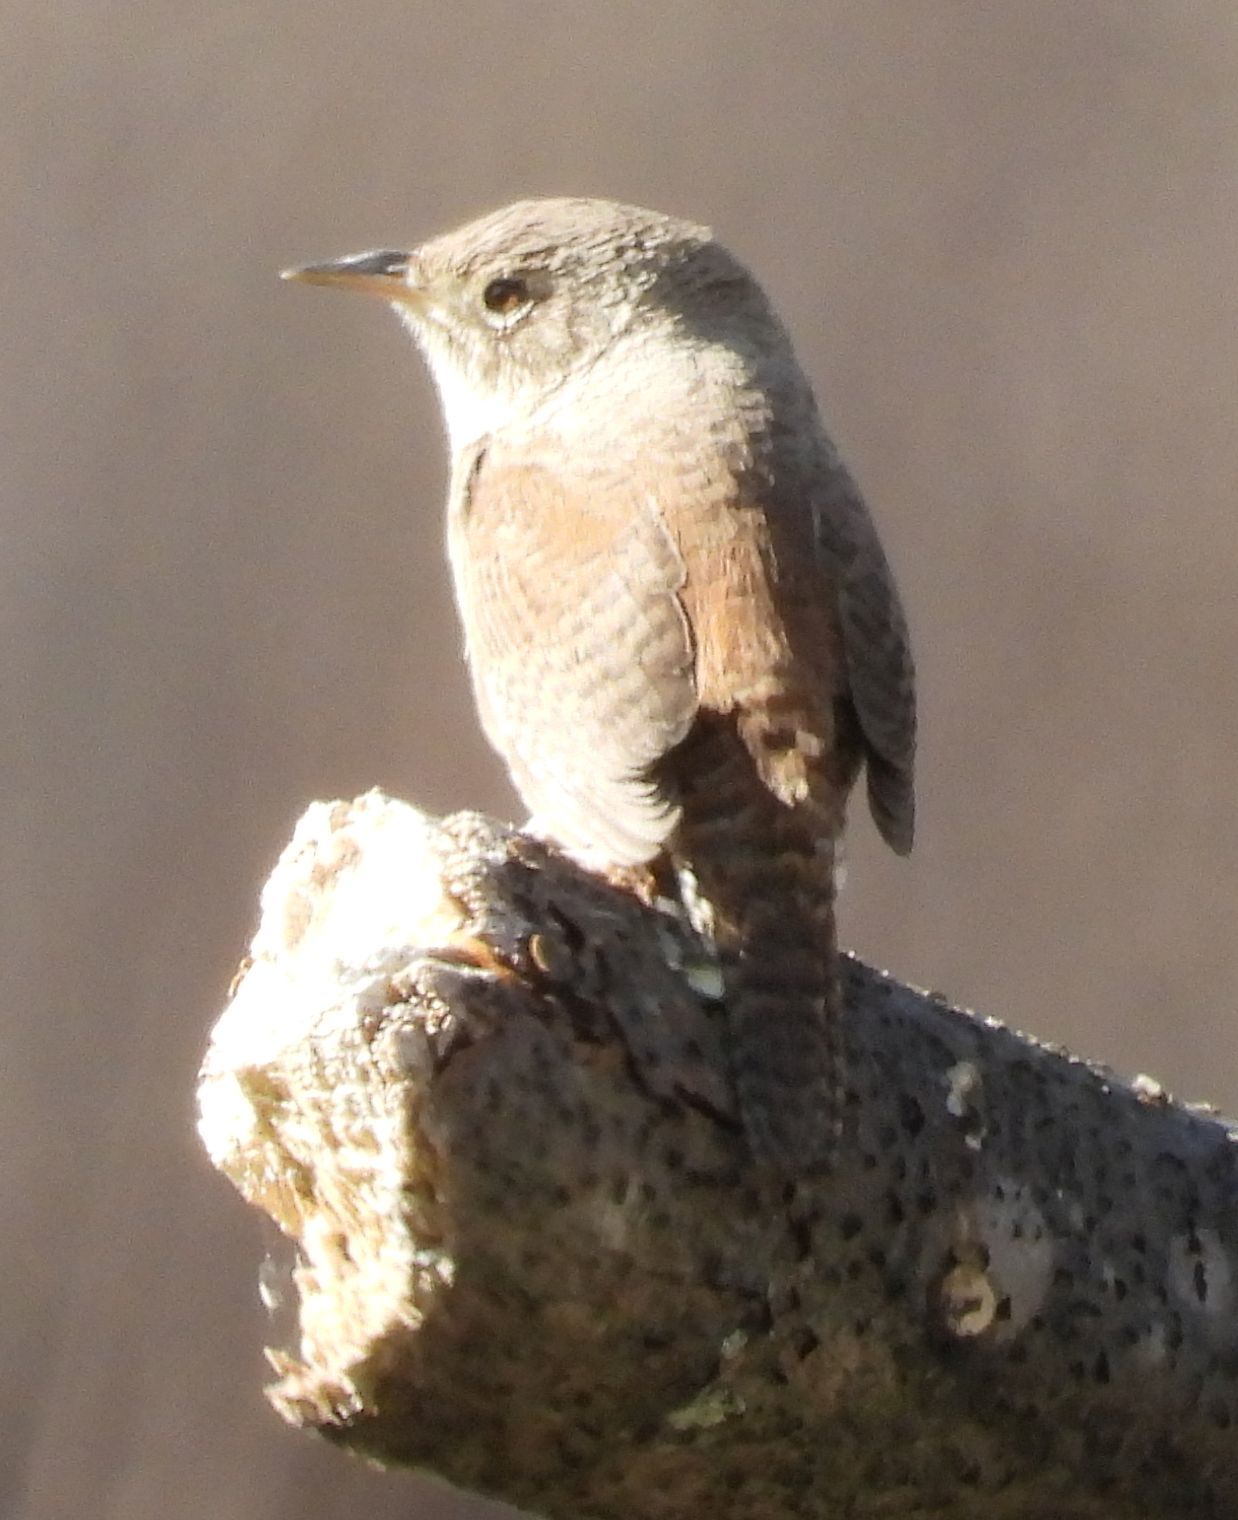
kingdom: Animalia
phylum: Chordata
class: Aves
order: Passeriformes
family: Troglodytidae
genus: Troglodytes
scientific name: Troglodytes aedon
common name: House wren
